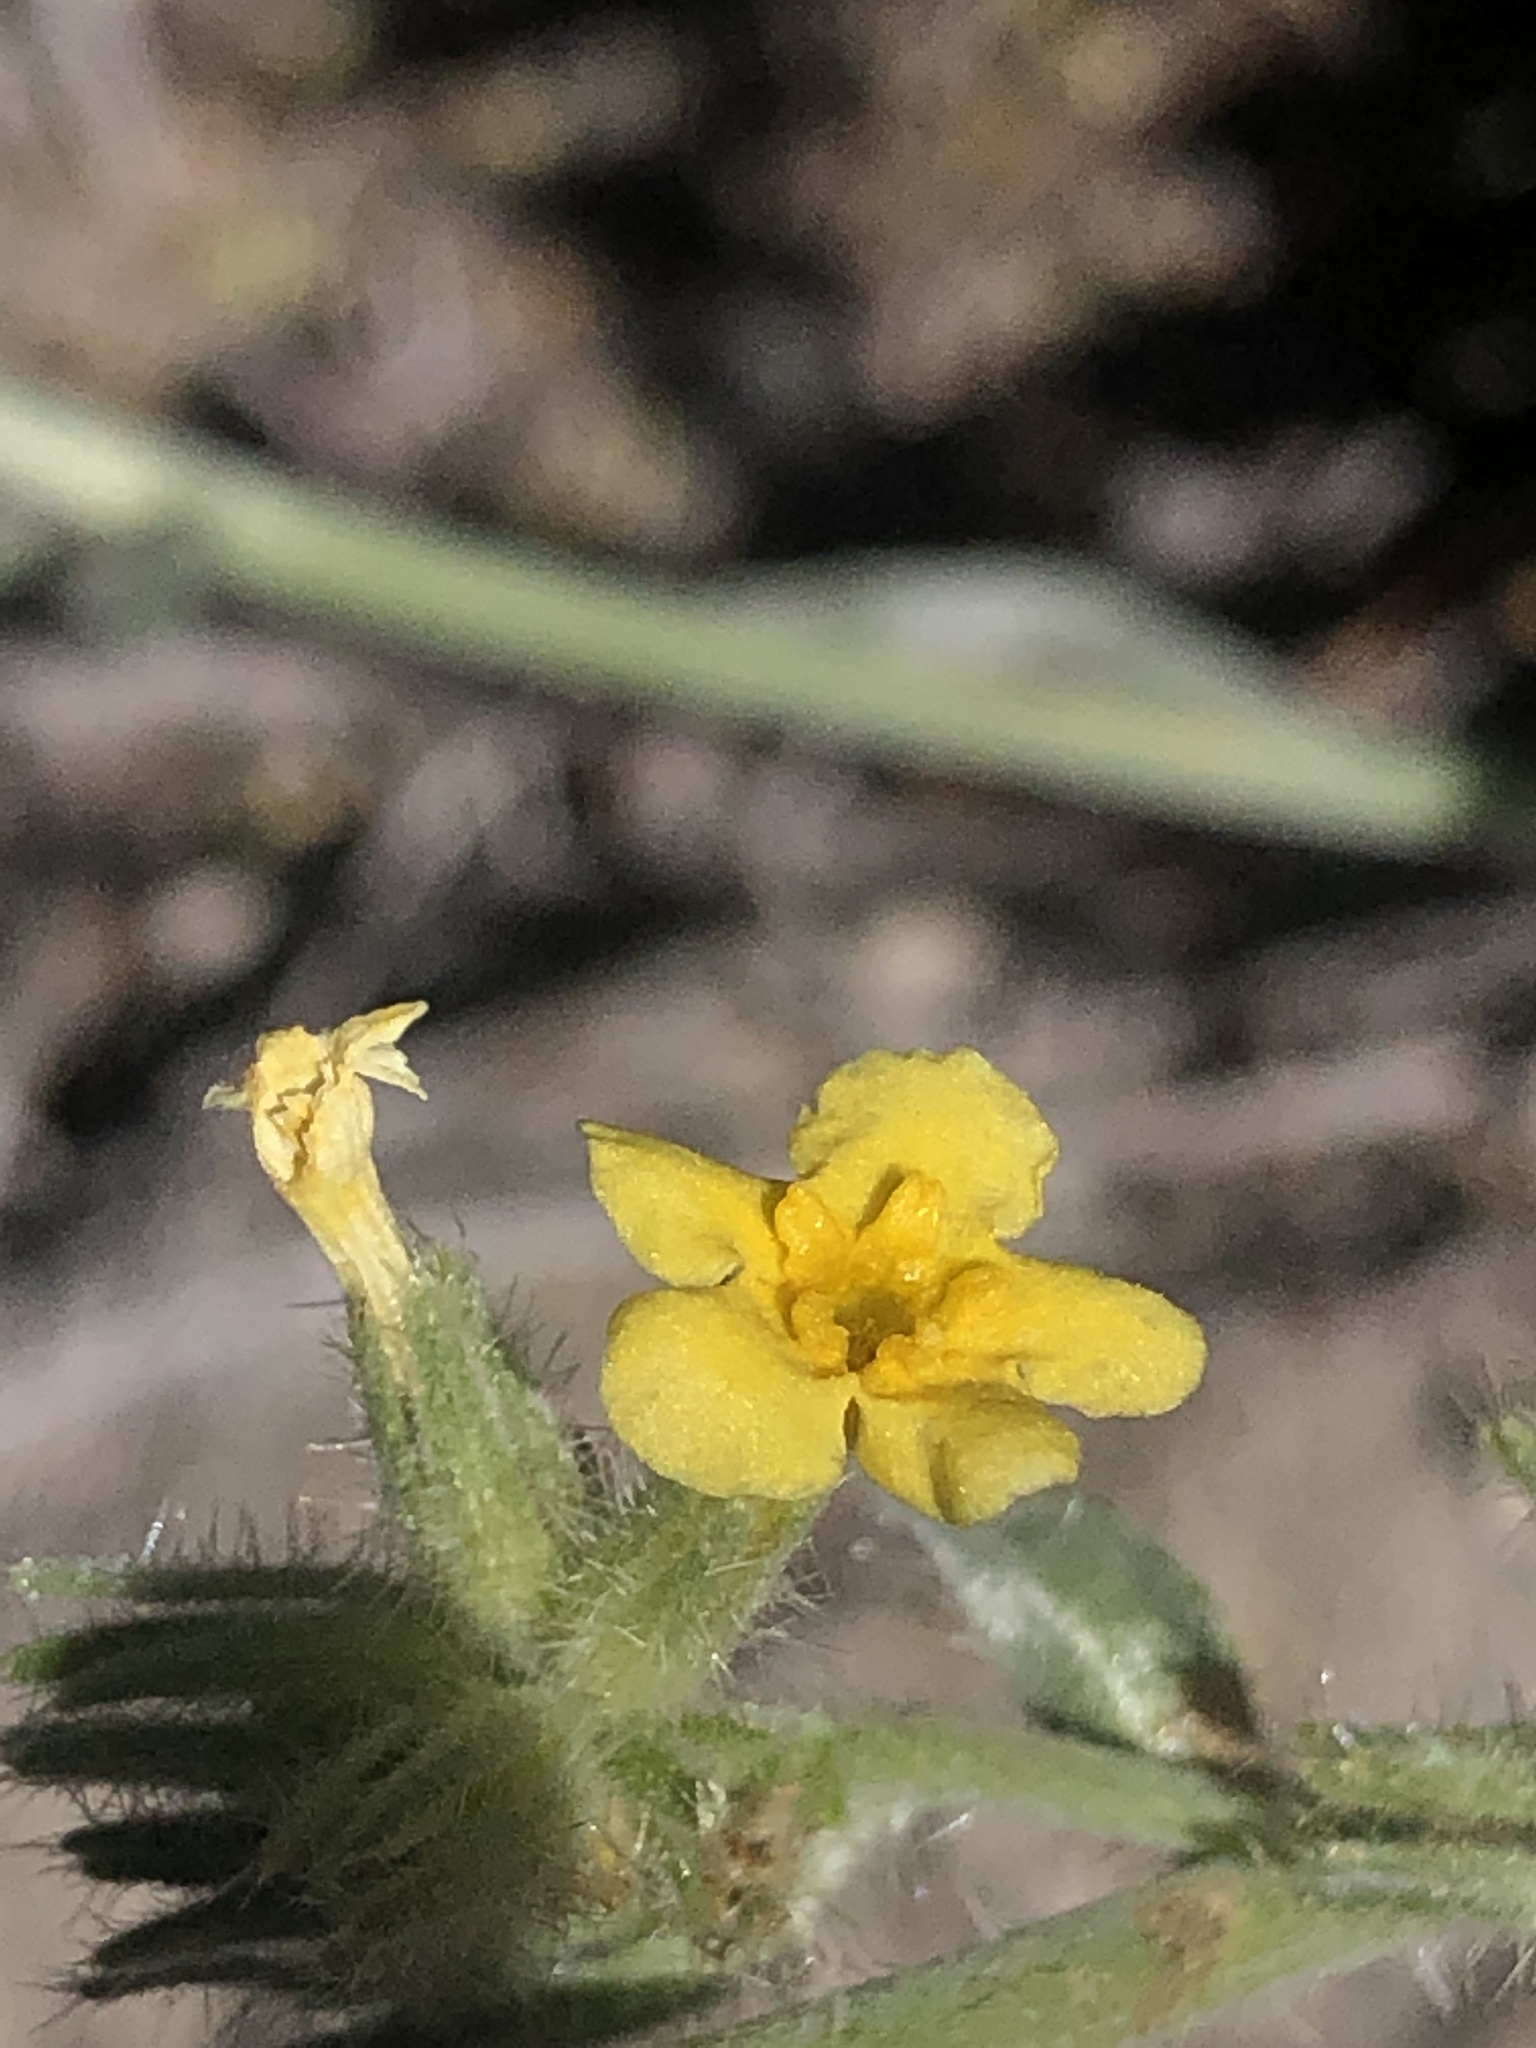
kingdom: Plantae
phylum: Tracheophyta
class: Magnoliopsida
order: Boraginales
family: Boraginaceae
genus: Oreocarya
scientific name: Oreocarya confertiflora
